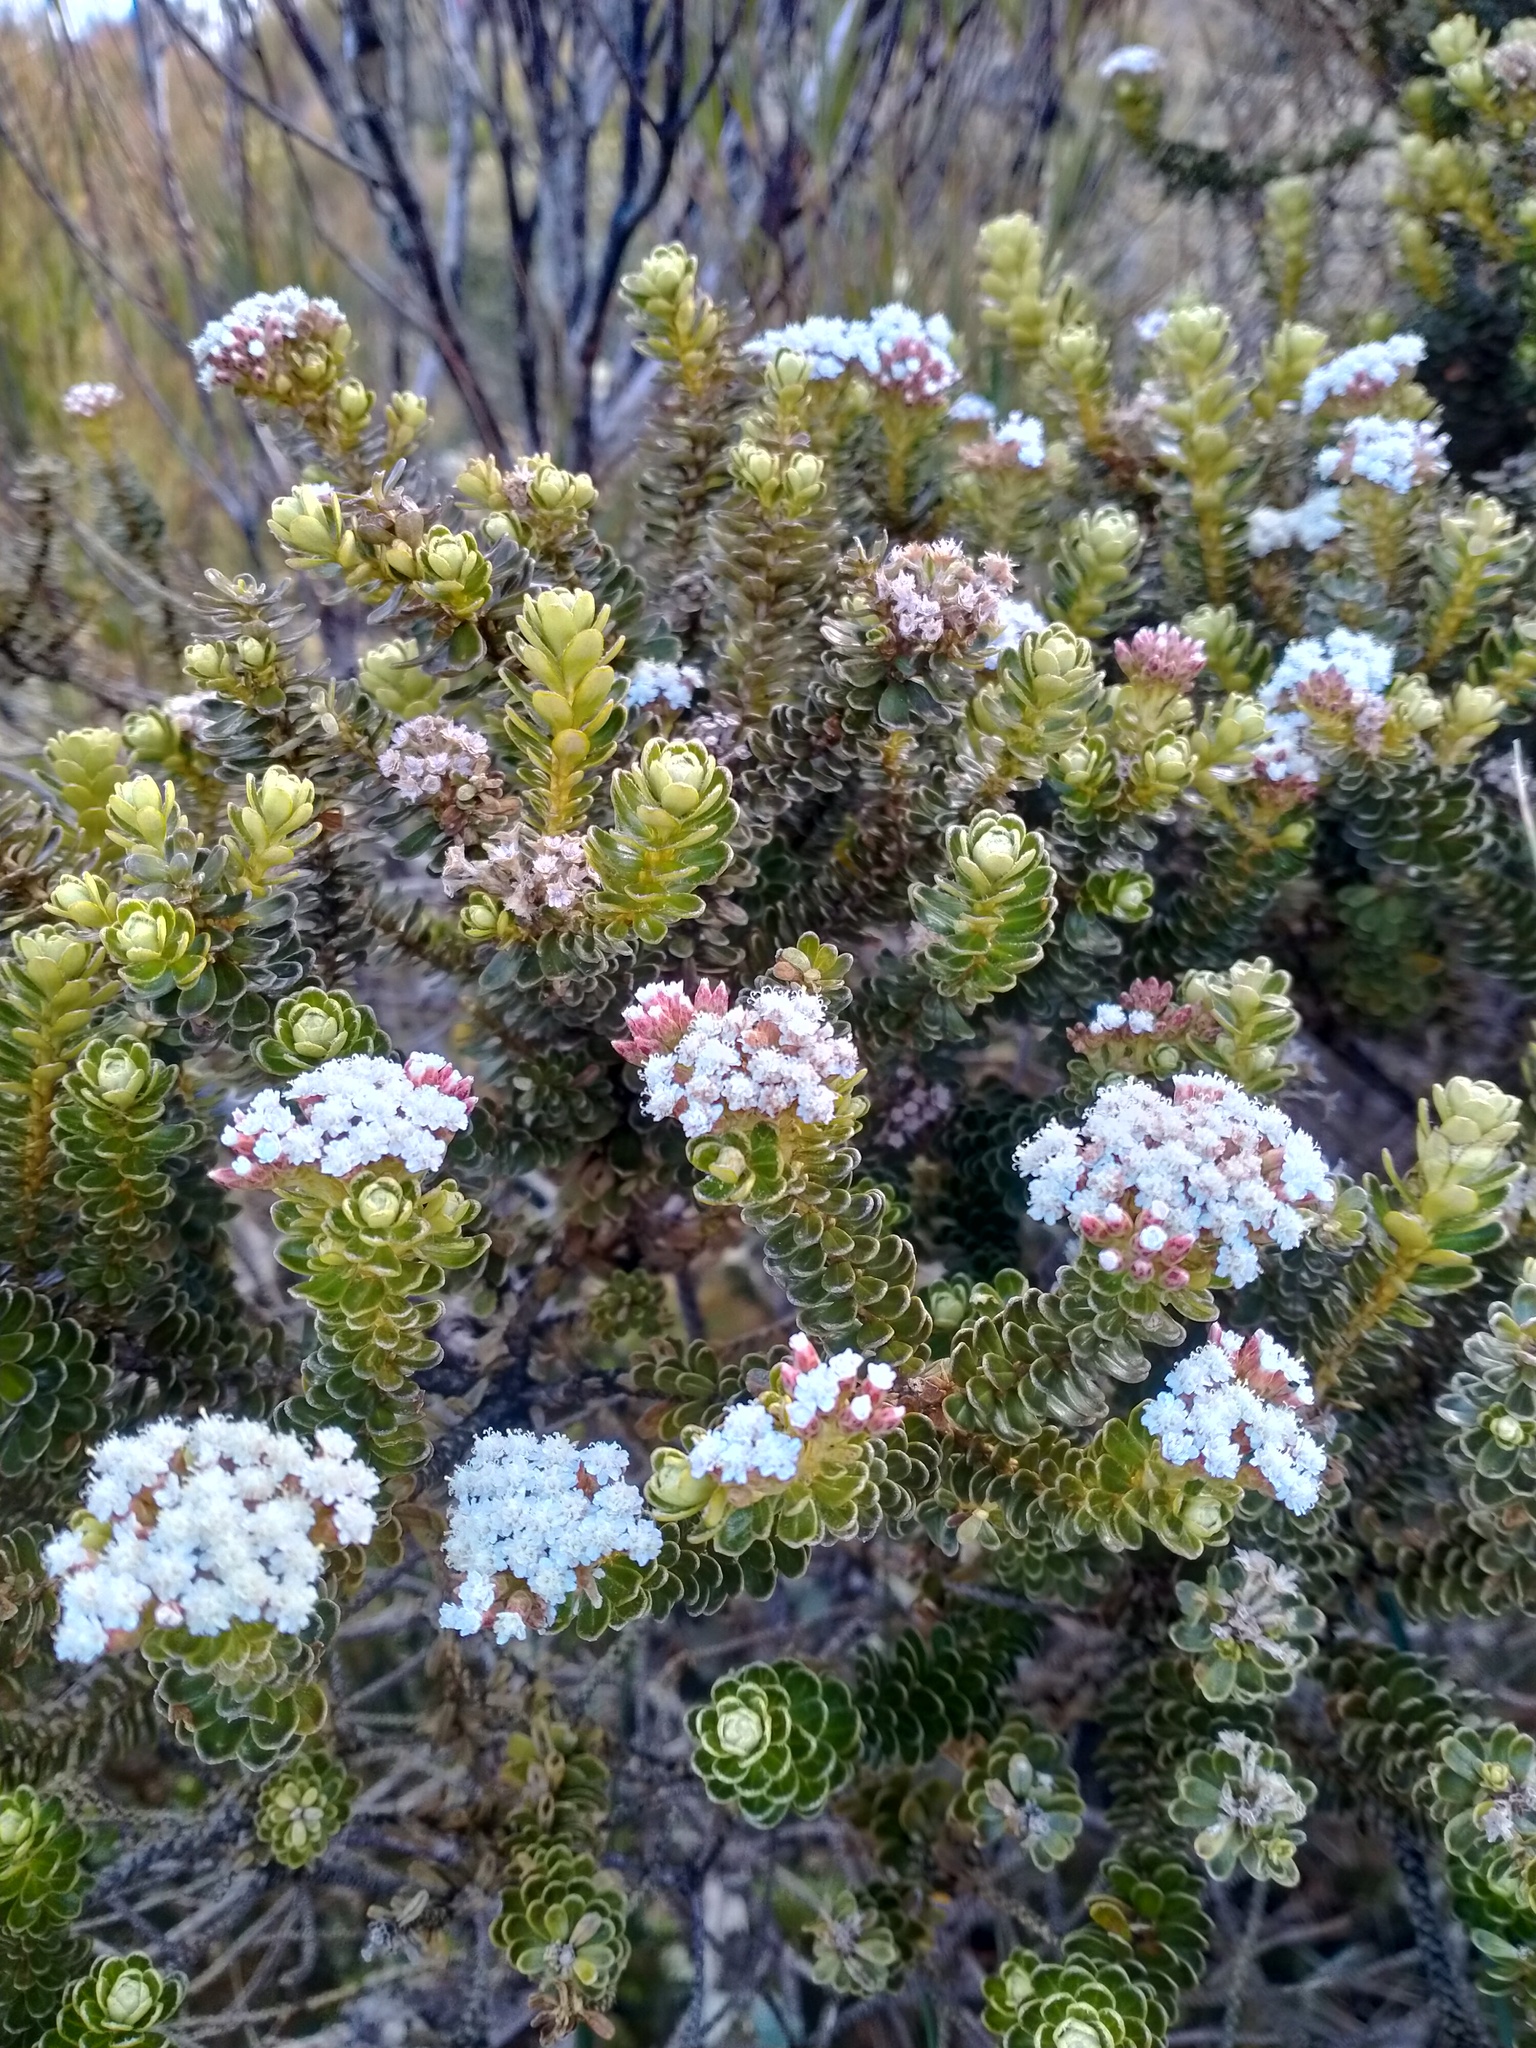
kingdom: Plantae
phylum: Tracheophyta
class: Magnoliopsida
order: Asterales
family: Asteraceae
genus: Ozothamnus
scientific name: Ozothamnus leptophyllus
